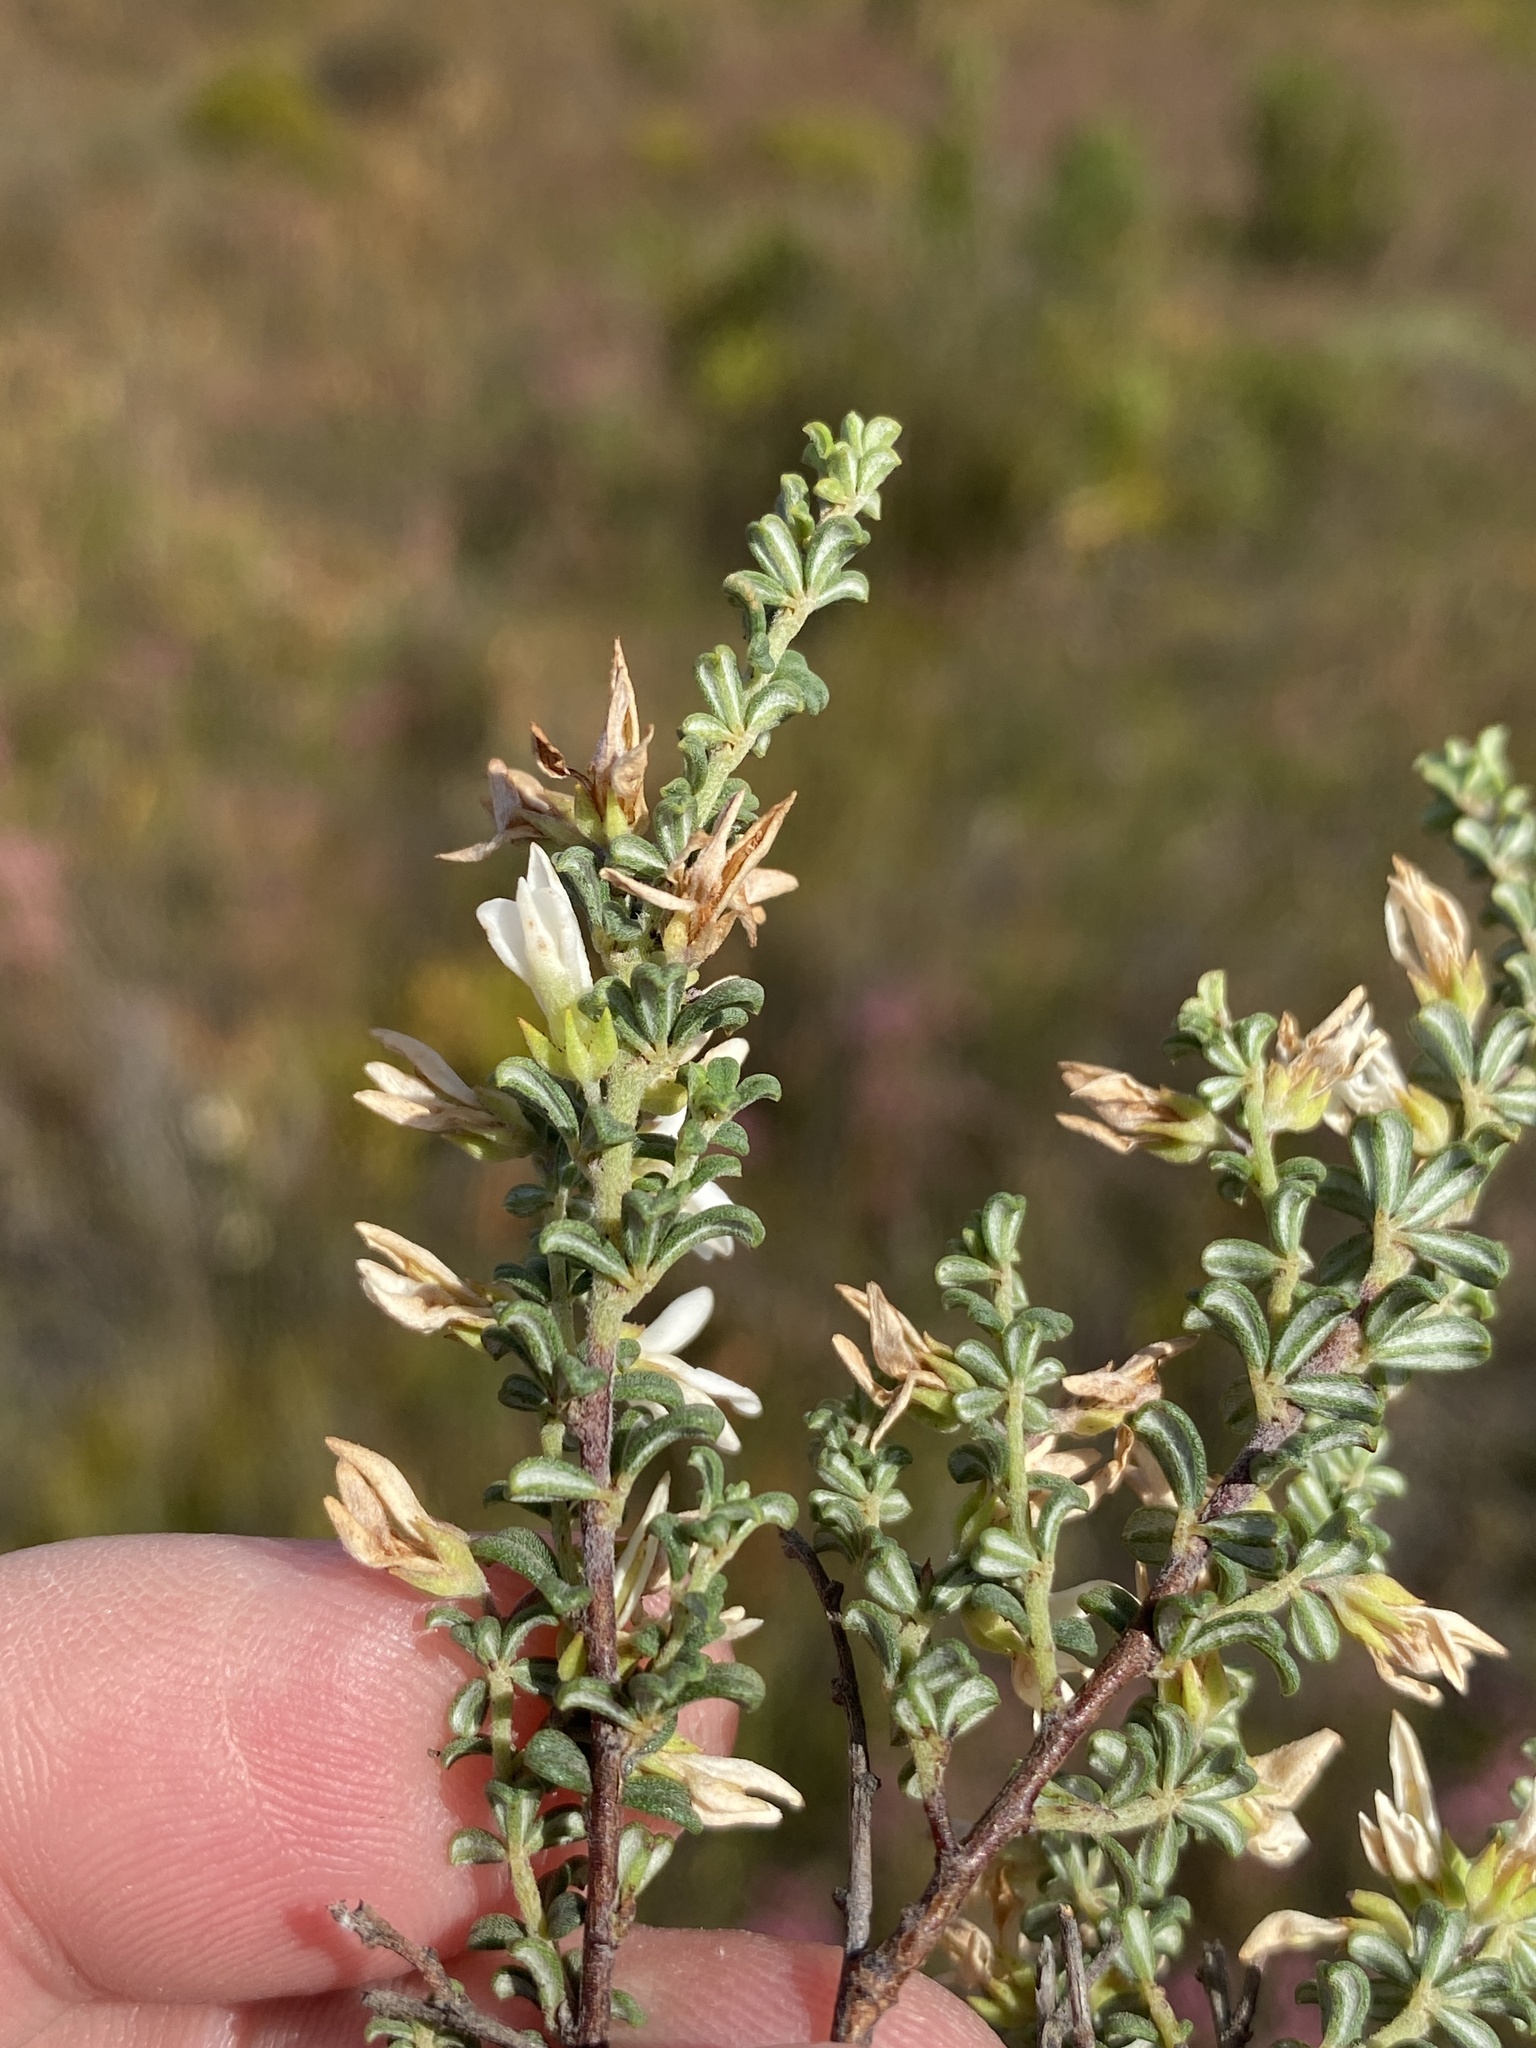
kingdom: Plantae
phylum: Tracheophyta
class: Magnoliopsida
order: Fabales
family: Fabaceae
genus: Indigofera
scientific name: Indigofera hamulosa
